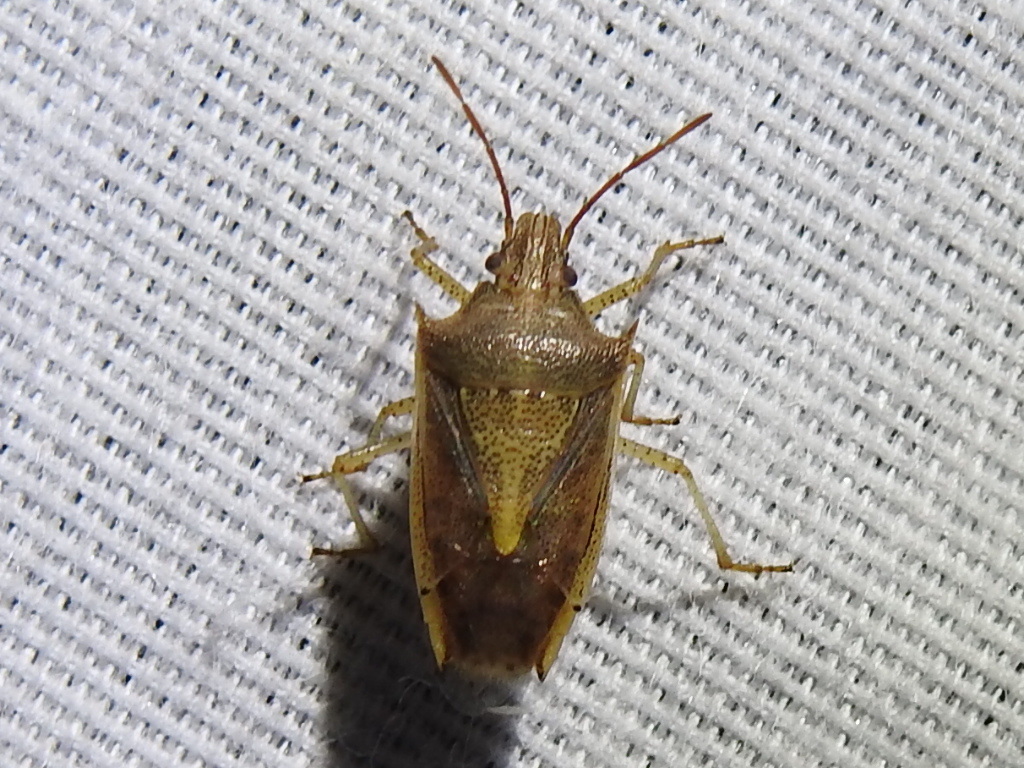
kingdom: Animalia
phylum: Arthropoda
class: Insecta
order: Hemiptera
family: Pentatomidae
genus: Oebalus
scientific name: Oebalus pugnax
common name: Rice stink bug
